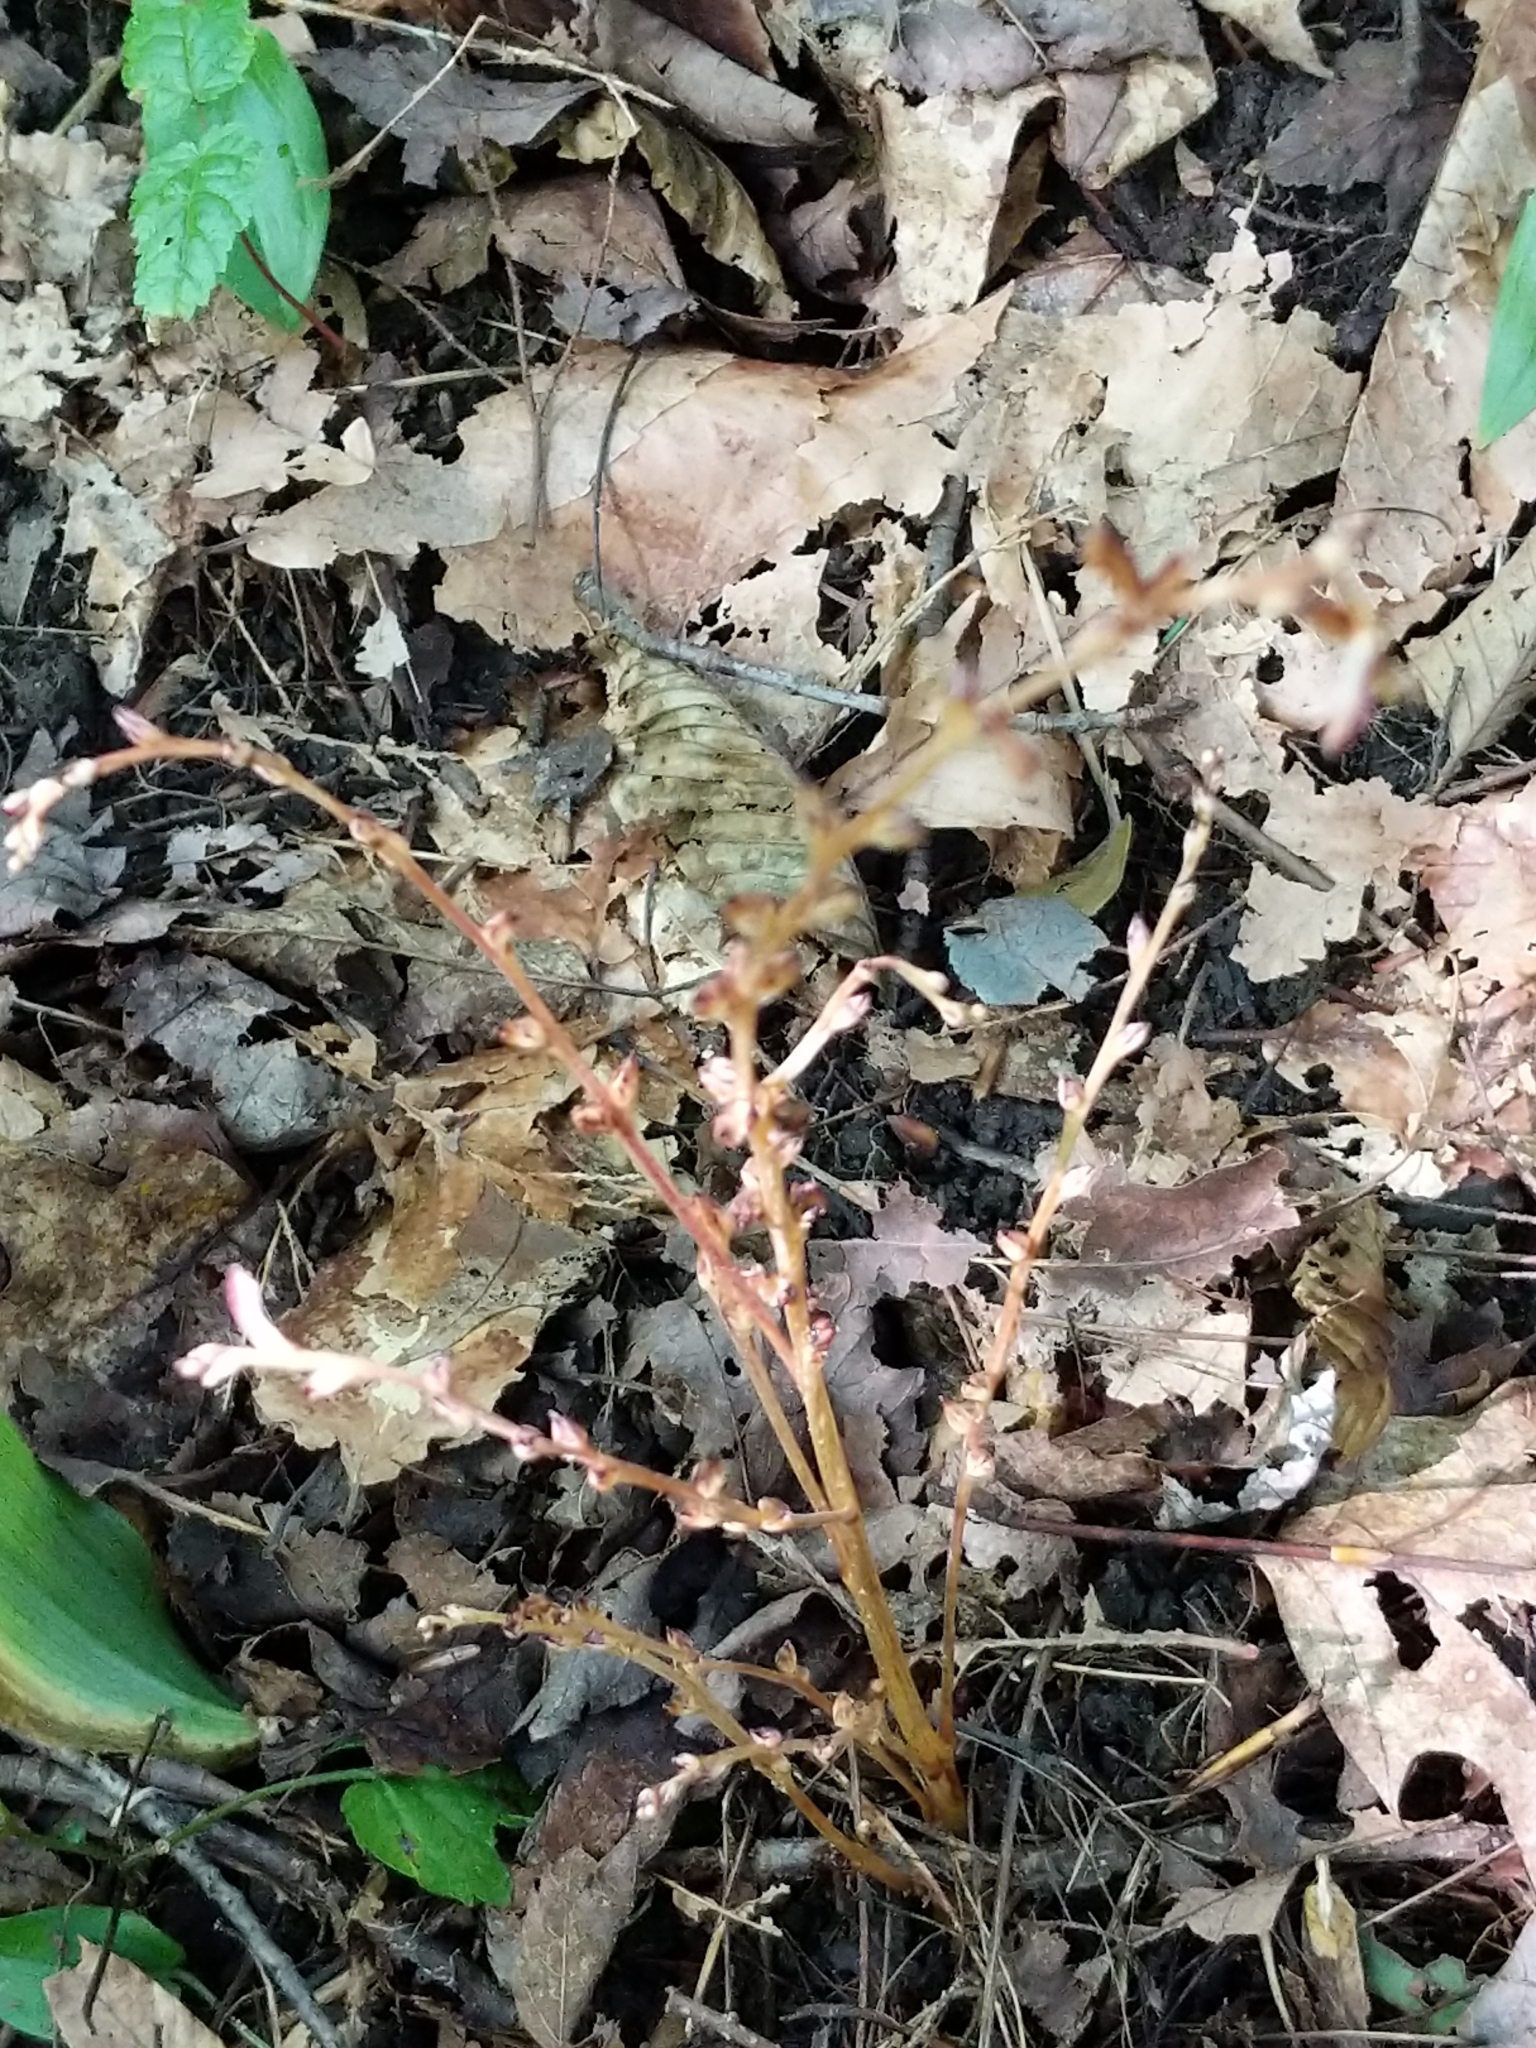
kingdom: Plantae
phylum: Tracheophyta
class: Magnoliopsida
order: Lamiales
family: Orobanchaceae
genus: Epifagus
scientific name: Epifagus virginiana
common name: Beechdrops
